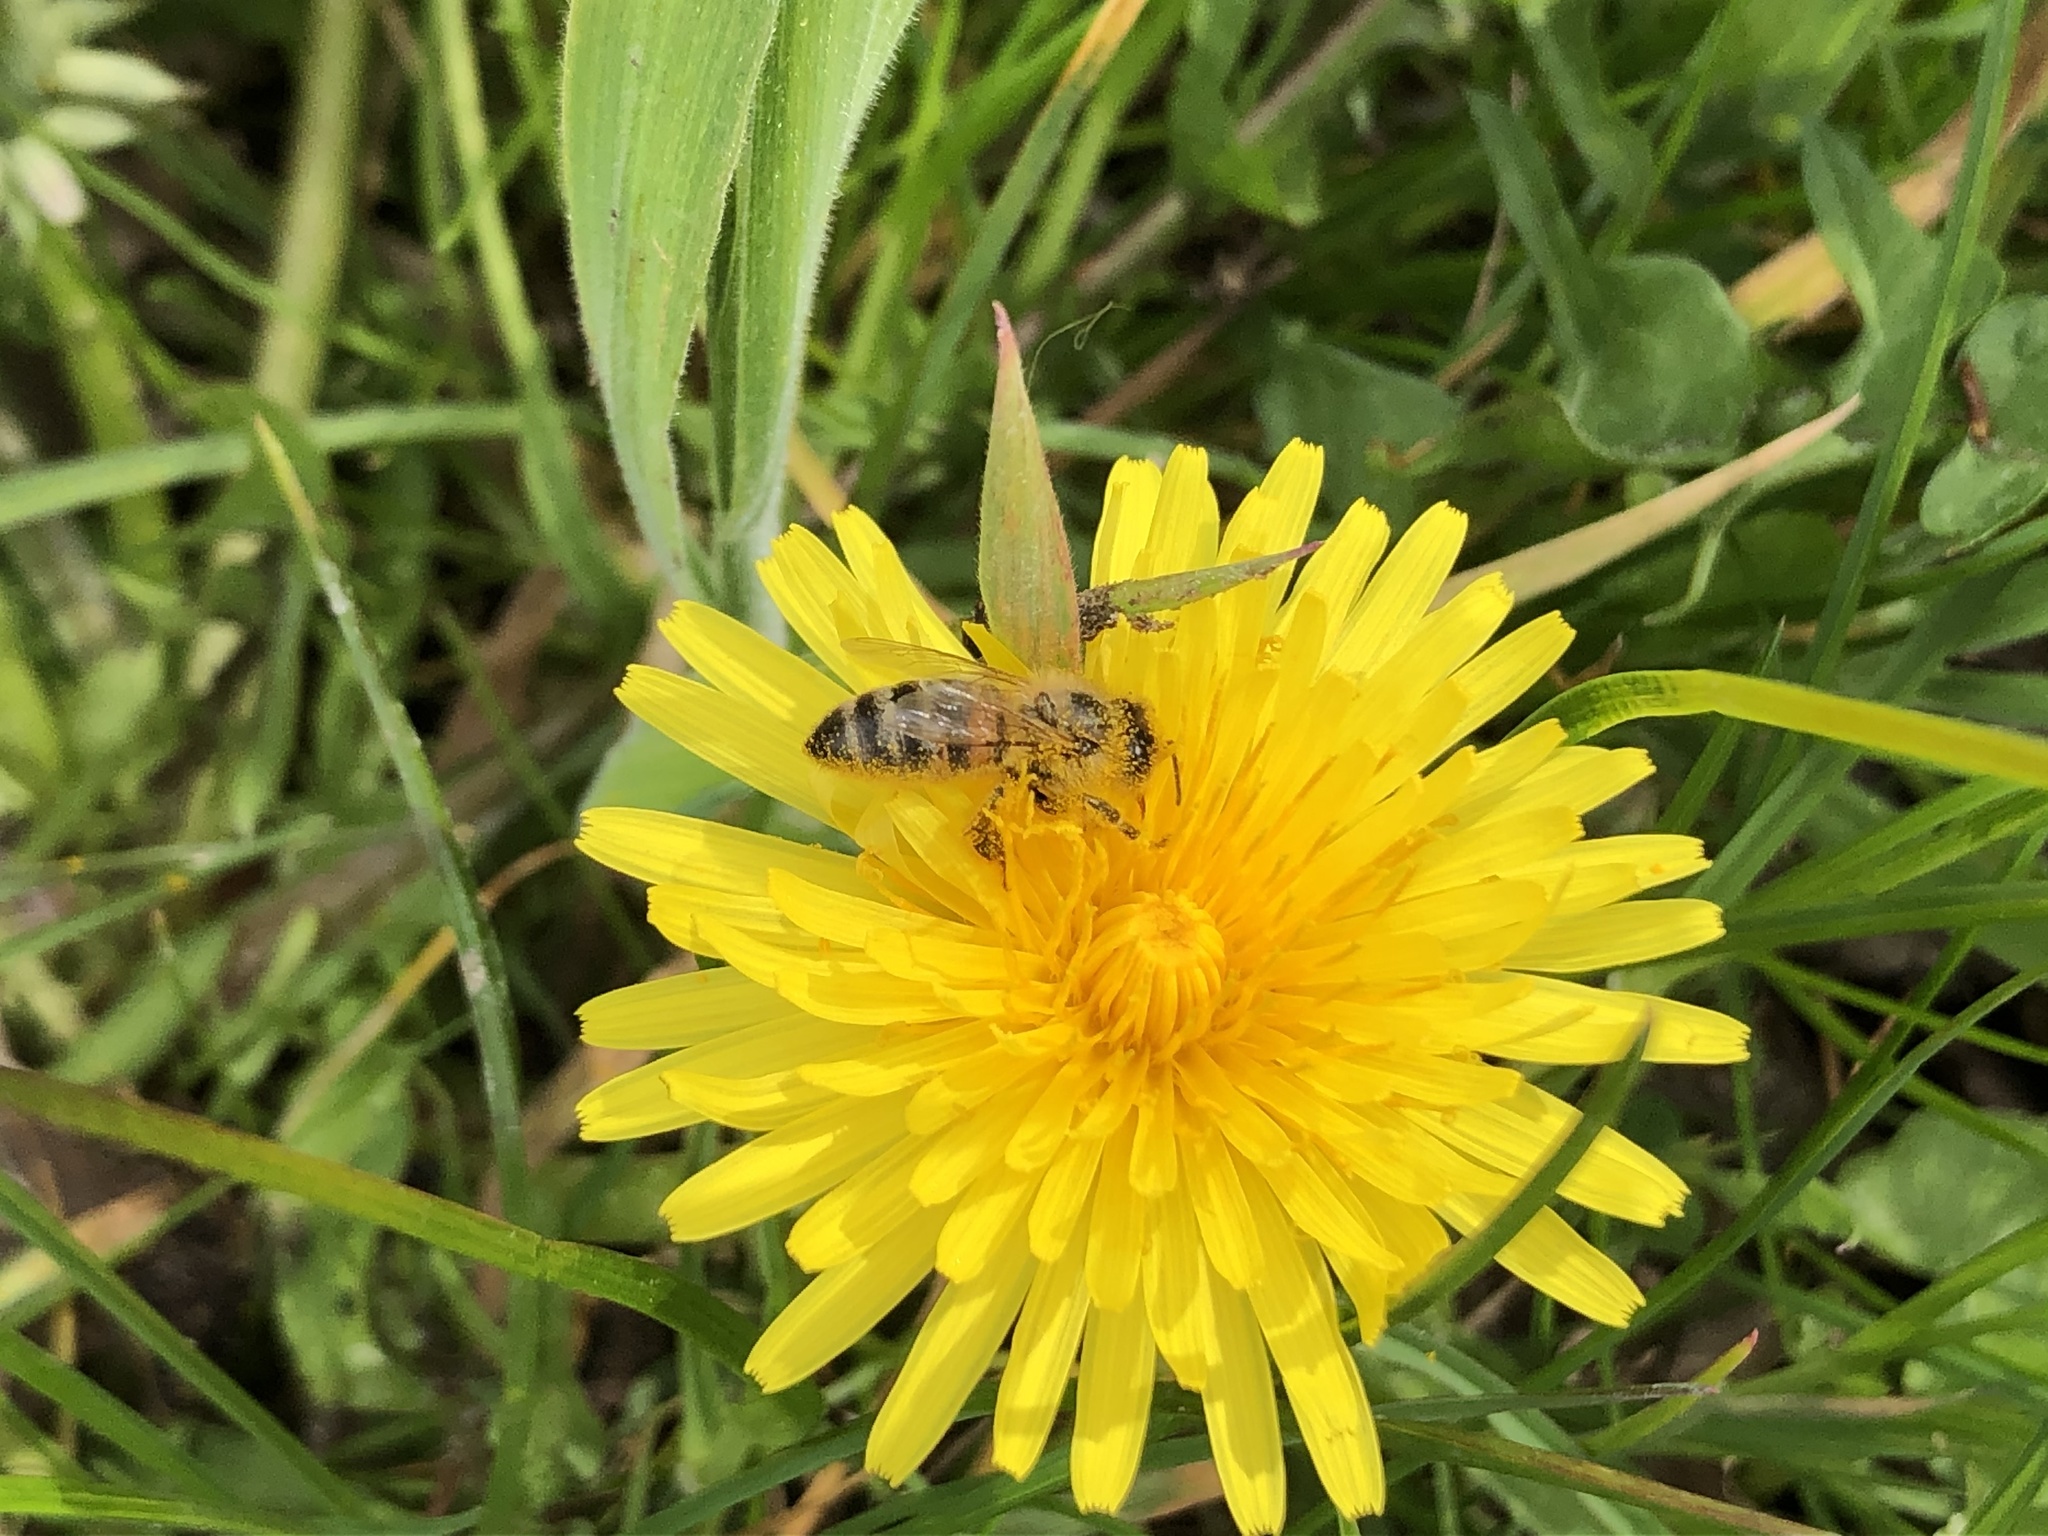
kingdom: Animalia
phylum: Arthropoda
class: Insecta
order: Hymenoptera
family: Apidae
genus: Apis
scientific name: Apis mellifera
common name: Honey bee
